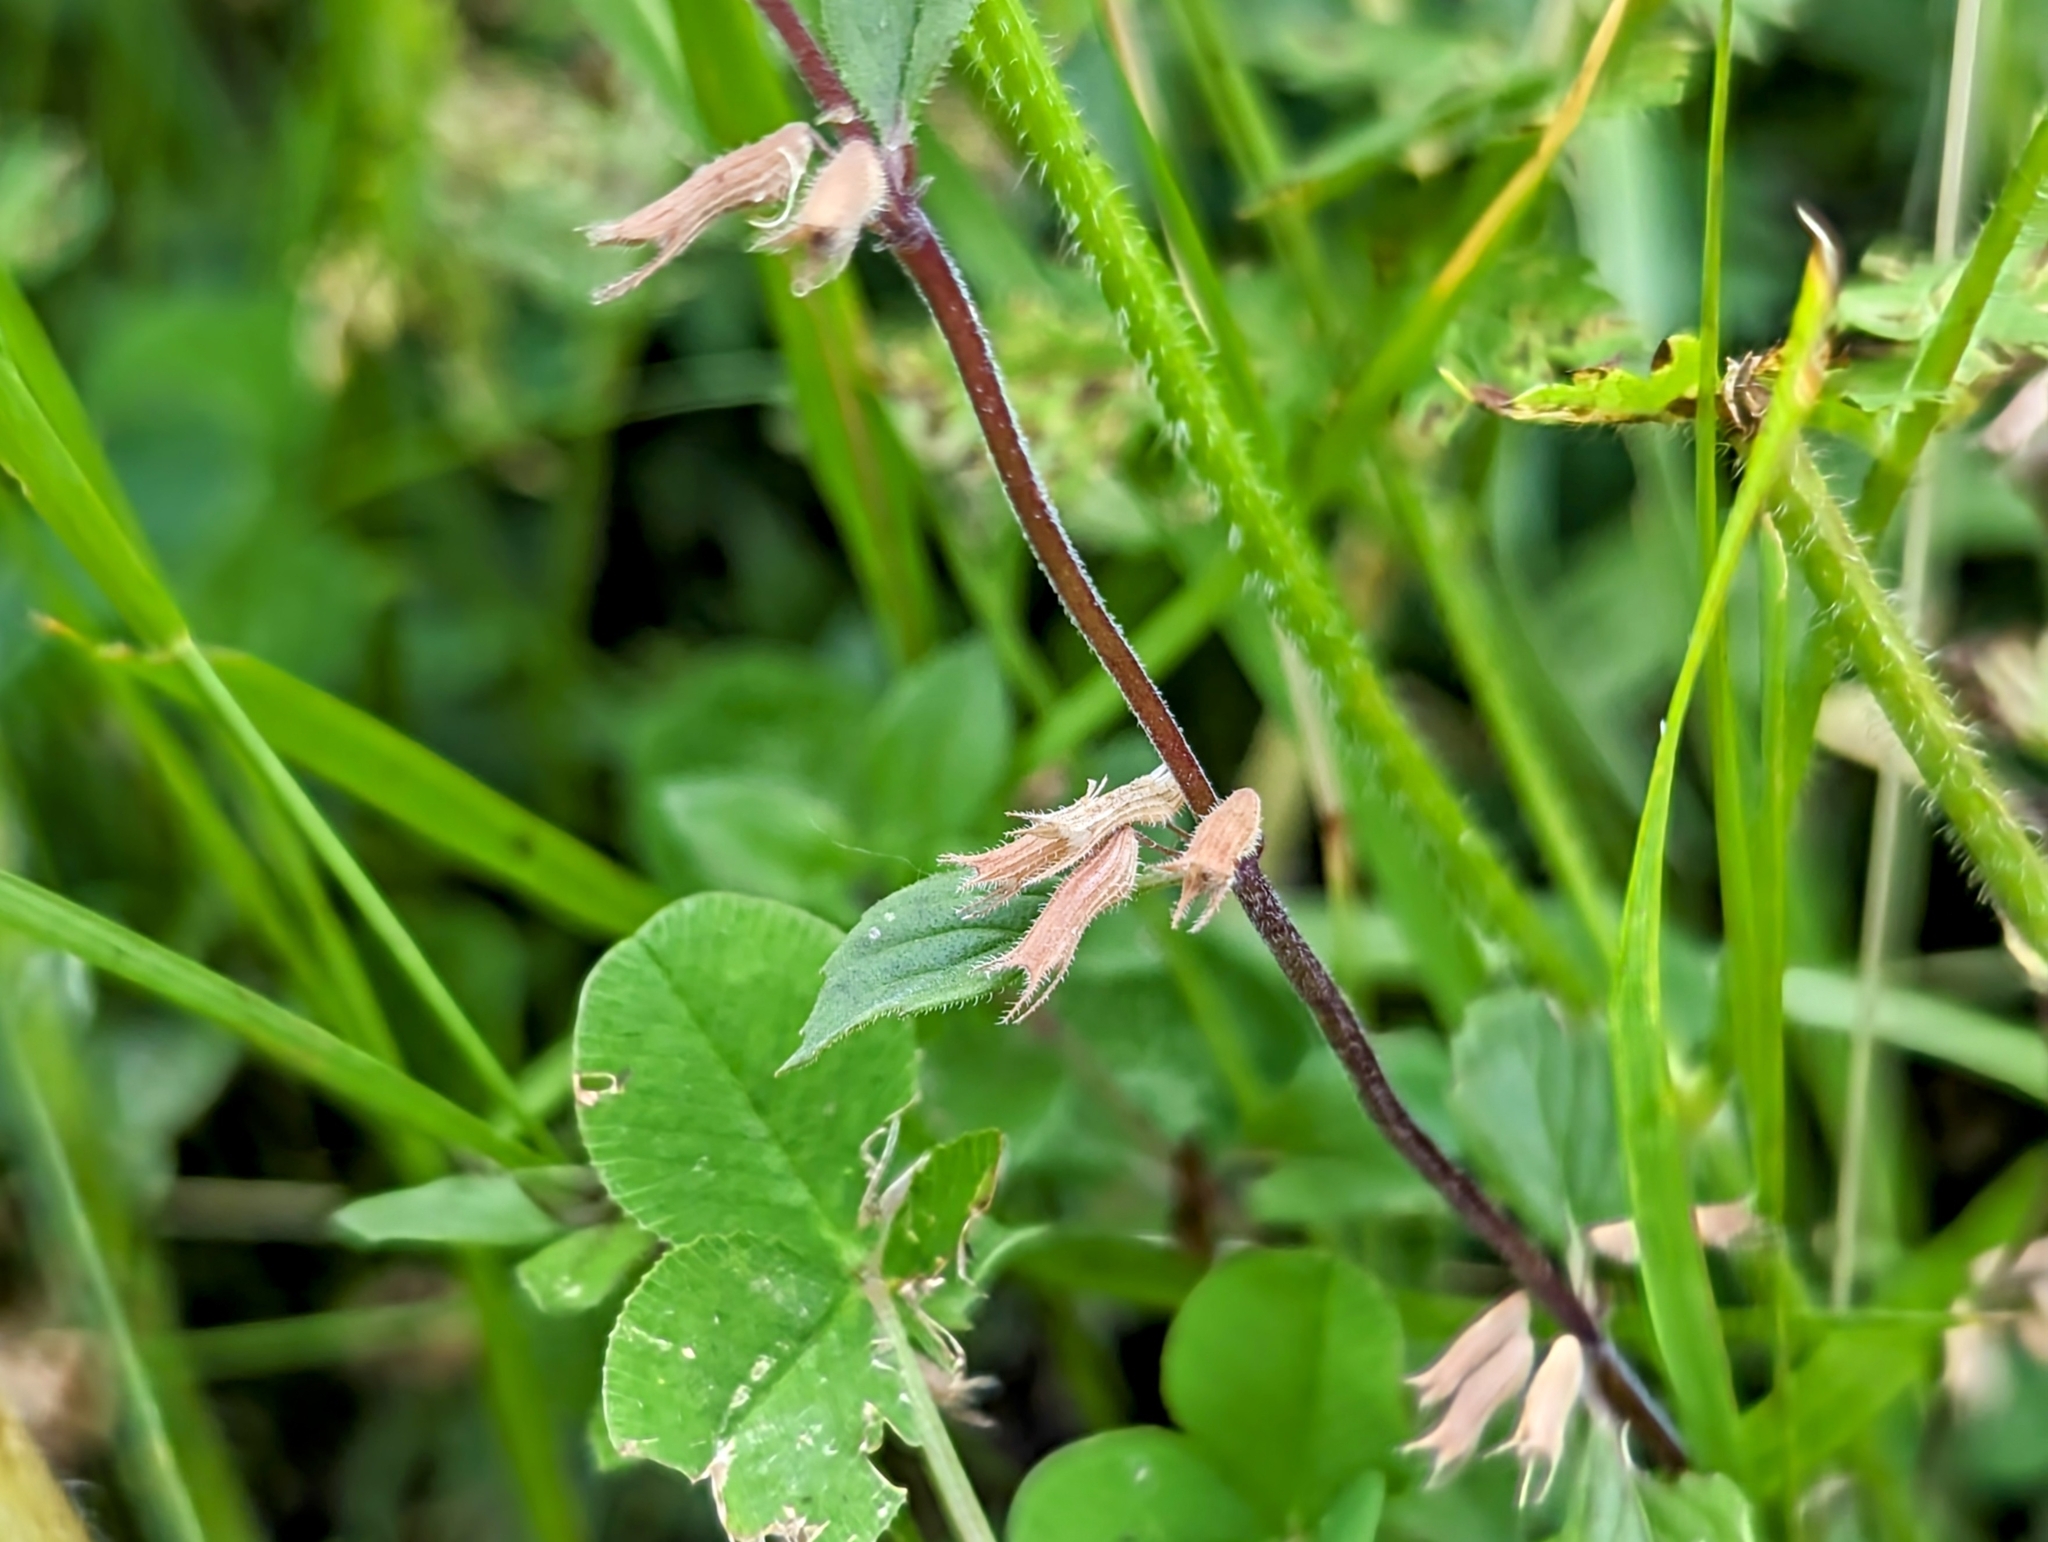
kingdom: Plantae
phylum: Tracheophyta
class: Magnoliopsida
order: Lamiales
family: Lamiaceae
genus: Clinopodium
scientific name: Clinopodium alpinum
